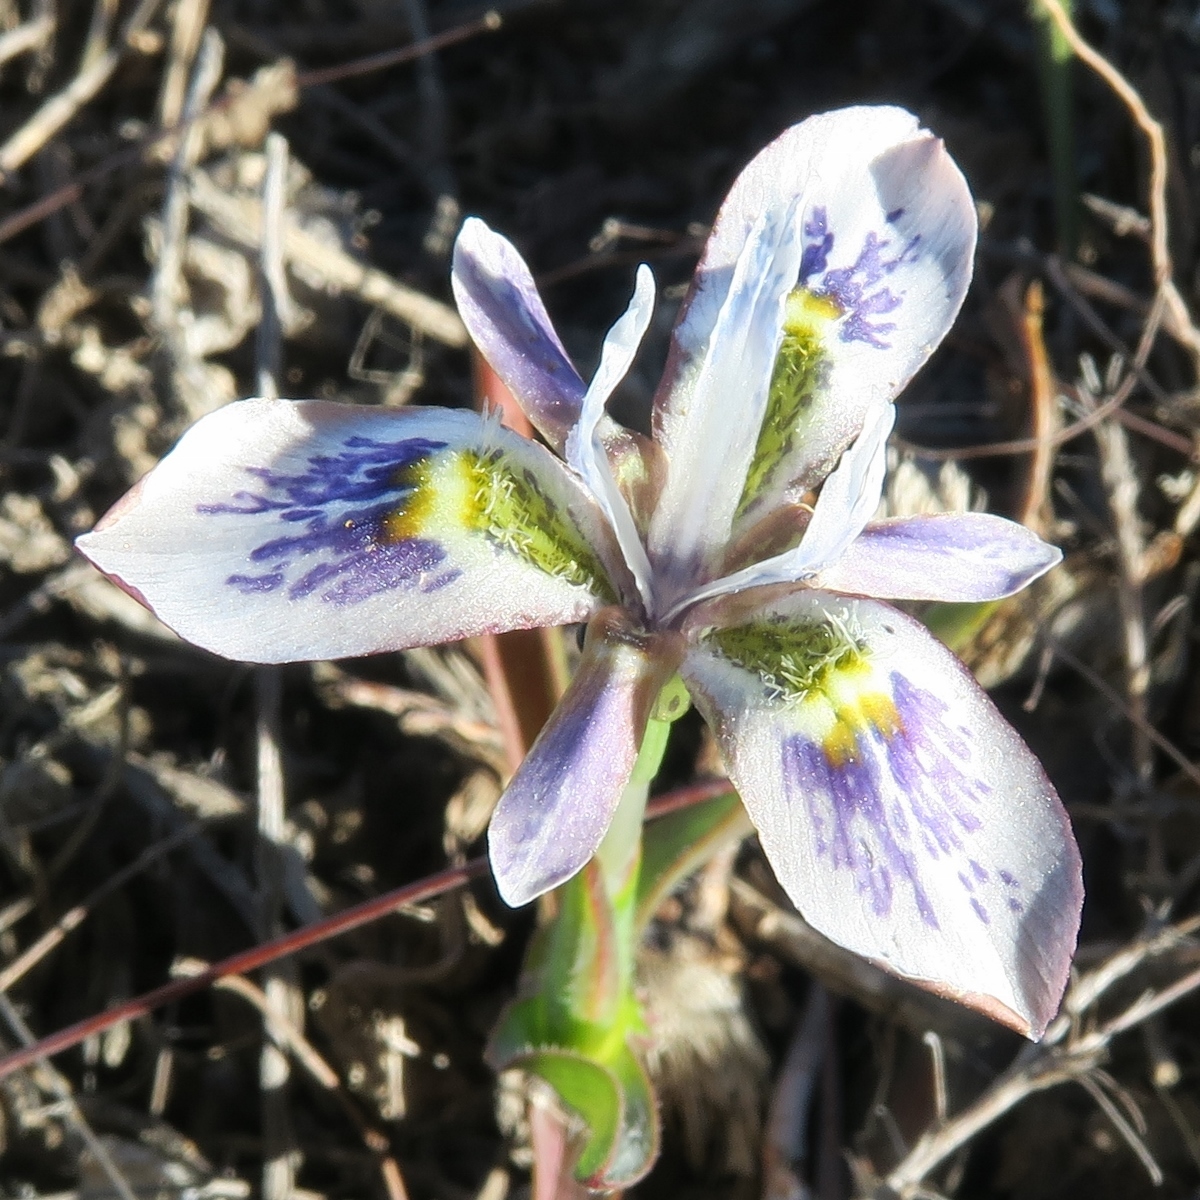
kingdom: Plantae
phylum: Tracheophyta
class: Liliopsida
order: Asparagales
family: Iridaceae
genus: Moraea
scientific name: Moraea ciliata
